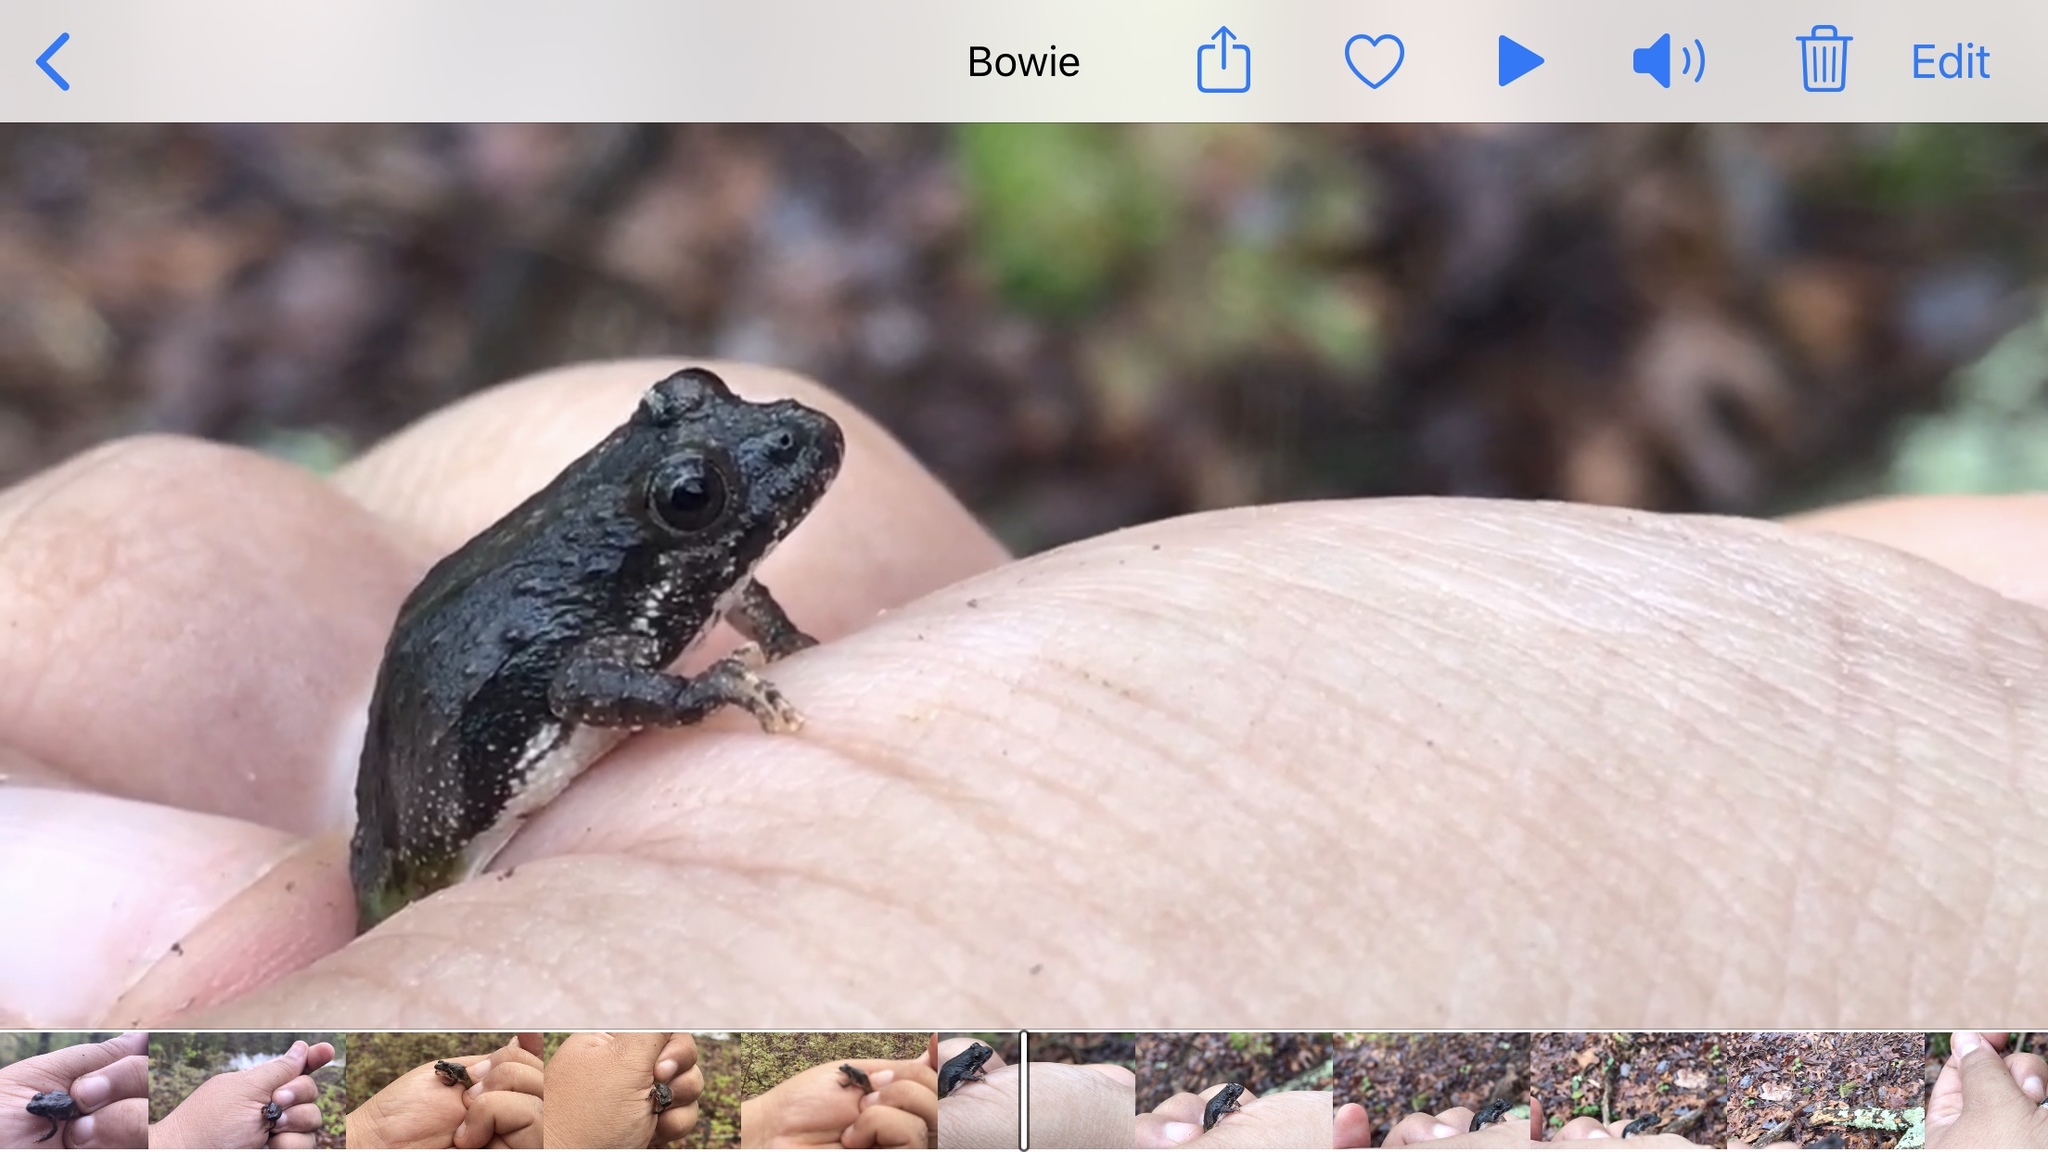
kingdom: Animalia
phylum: Chordata
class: Amphibia
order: Anura
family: Hylidae
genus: Acris
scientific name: Acris crepitans
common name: Northern cricket frog
